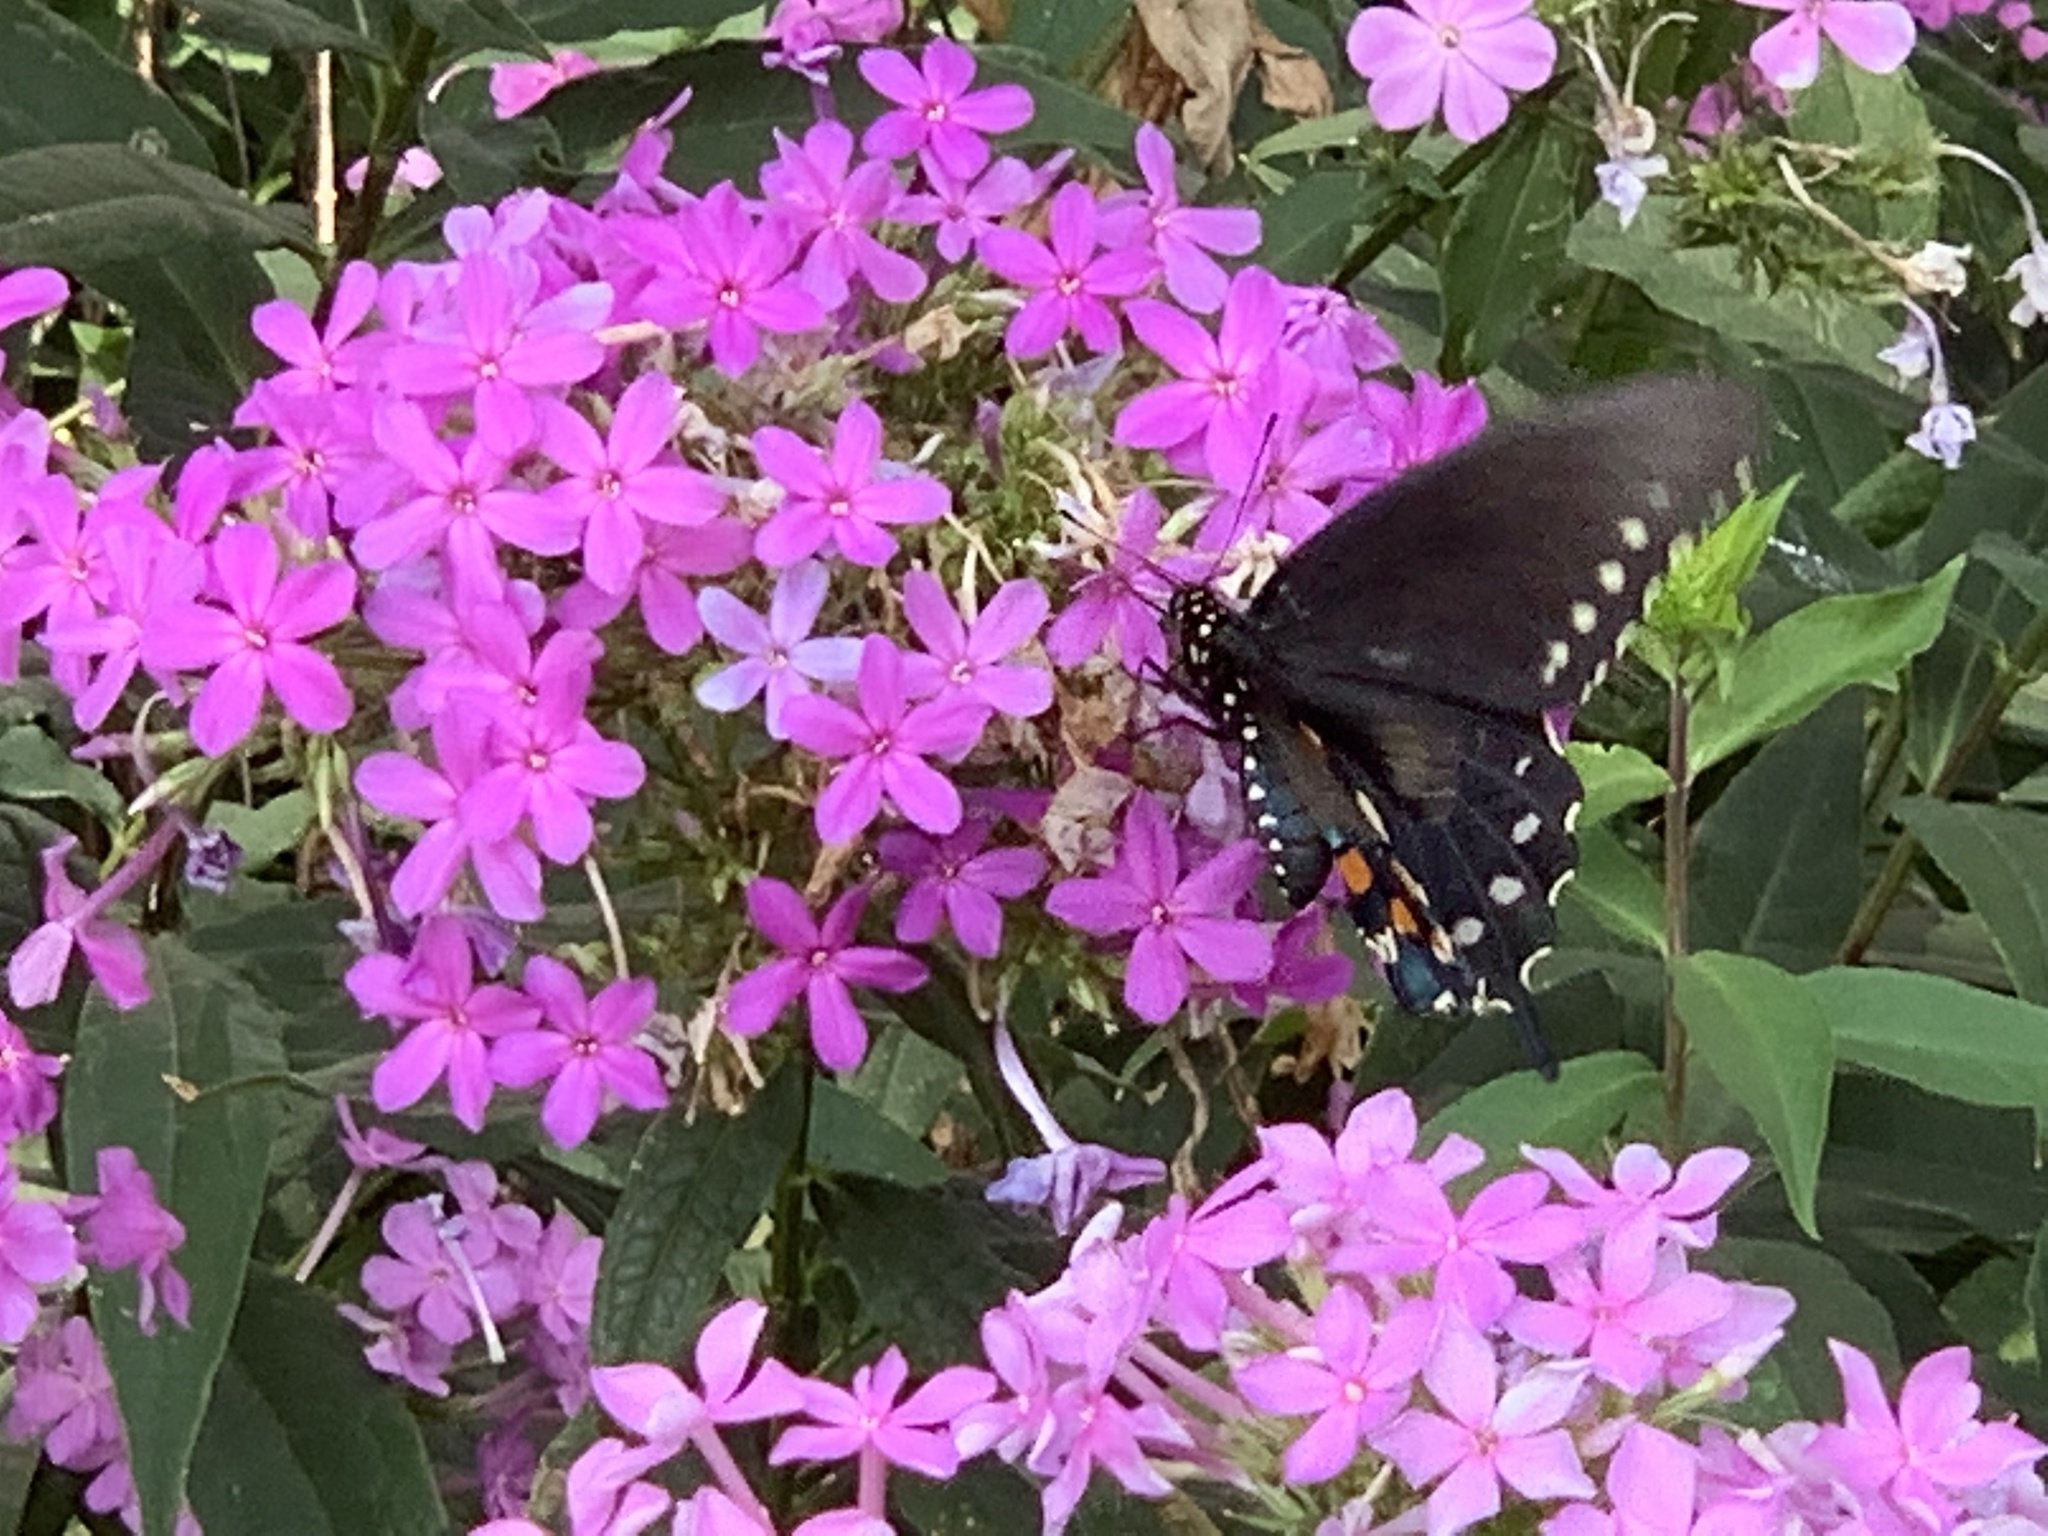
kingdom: Animalia
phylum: Arthropoda
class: Insecta
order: Lepidoptera
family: Papilionidae
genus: Battus
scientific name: Battus philenor
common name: Pipevine swallowtail
